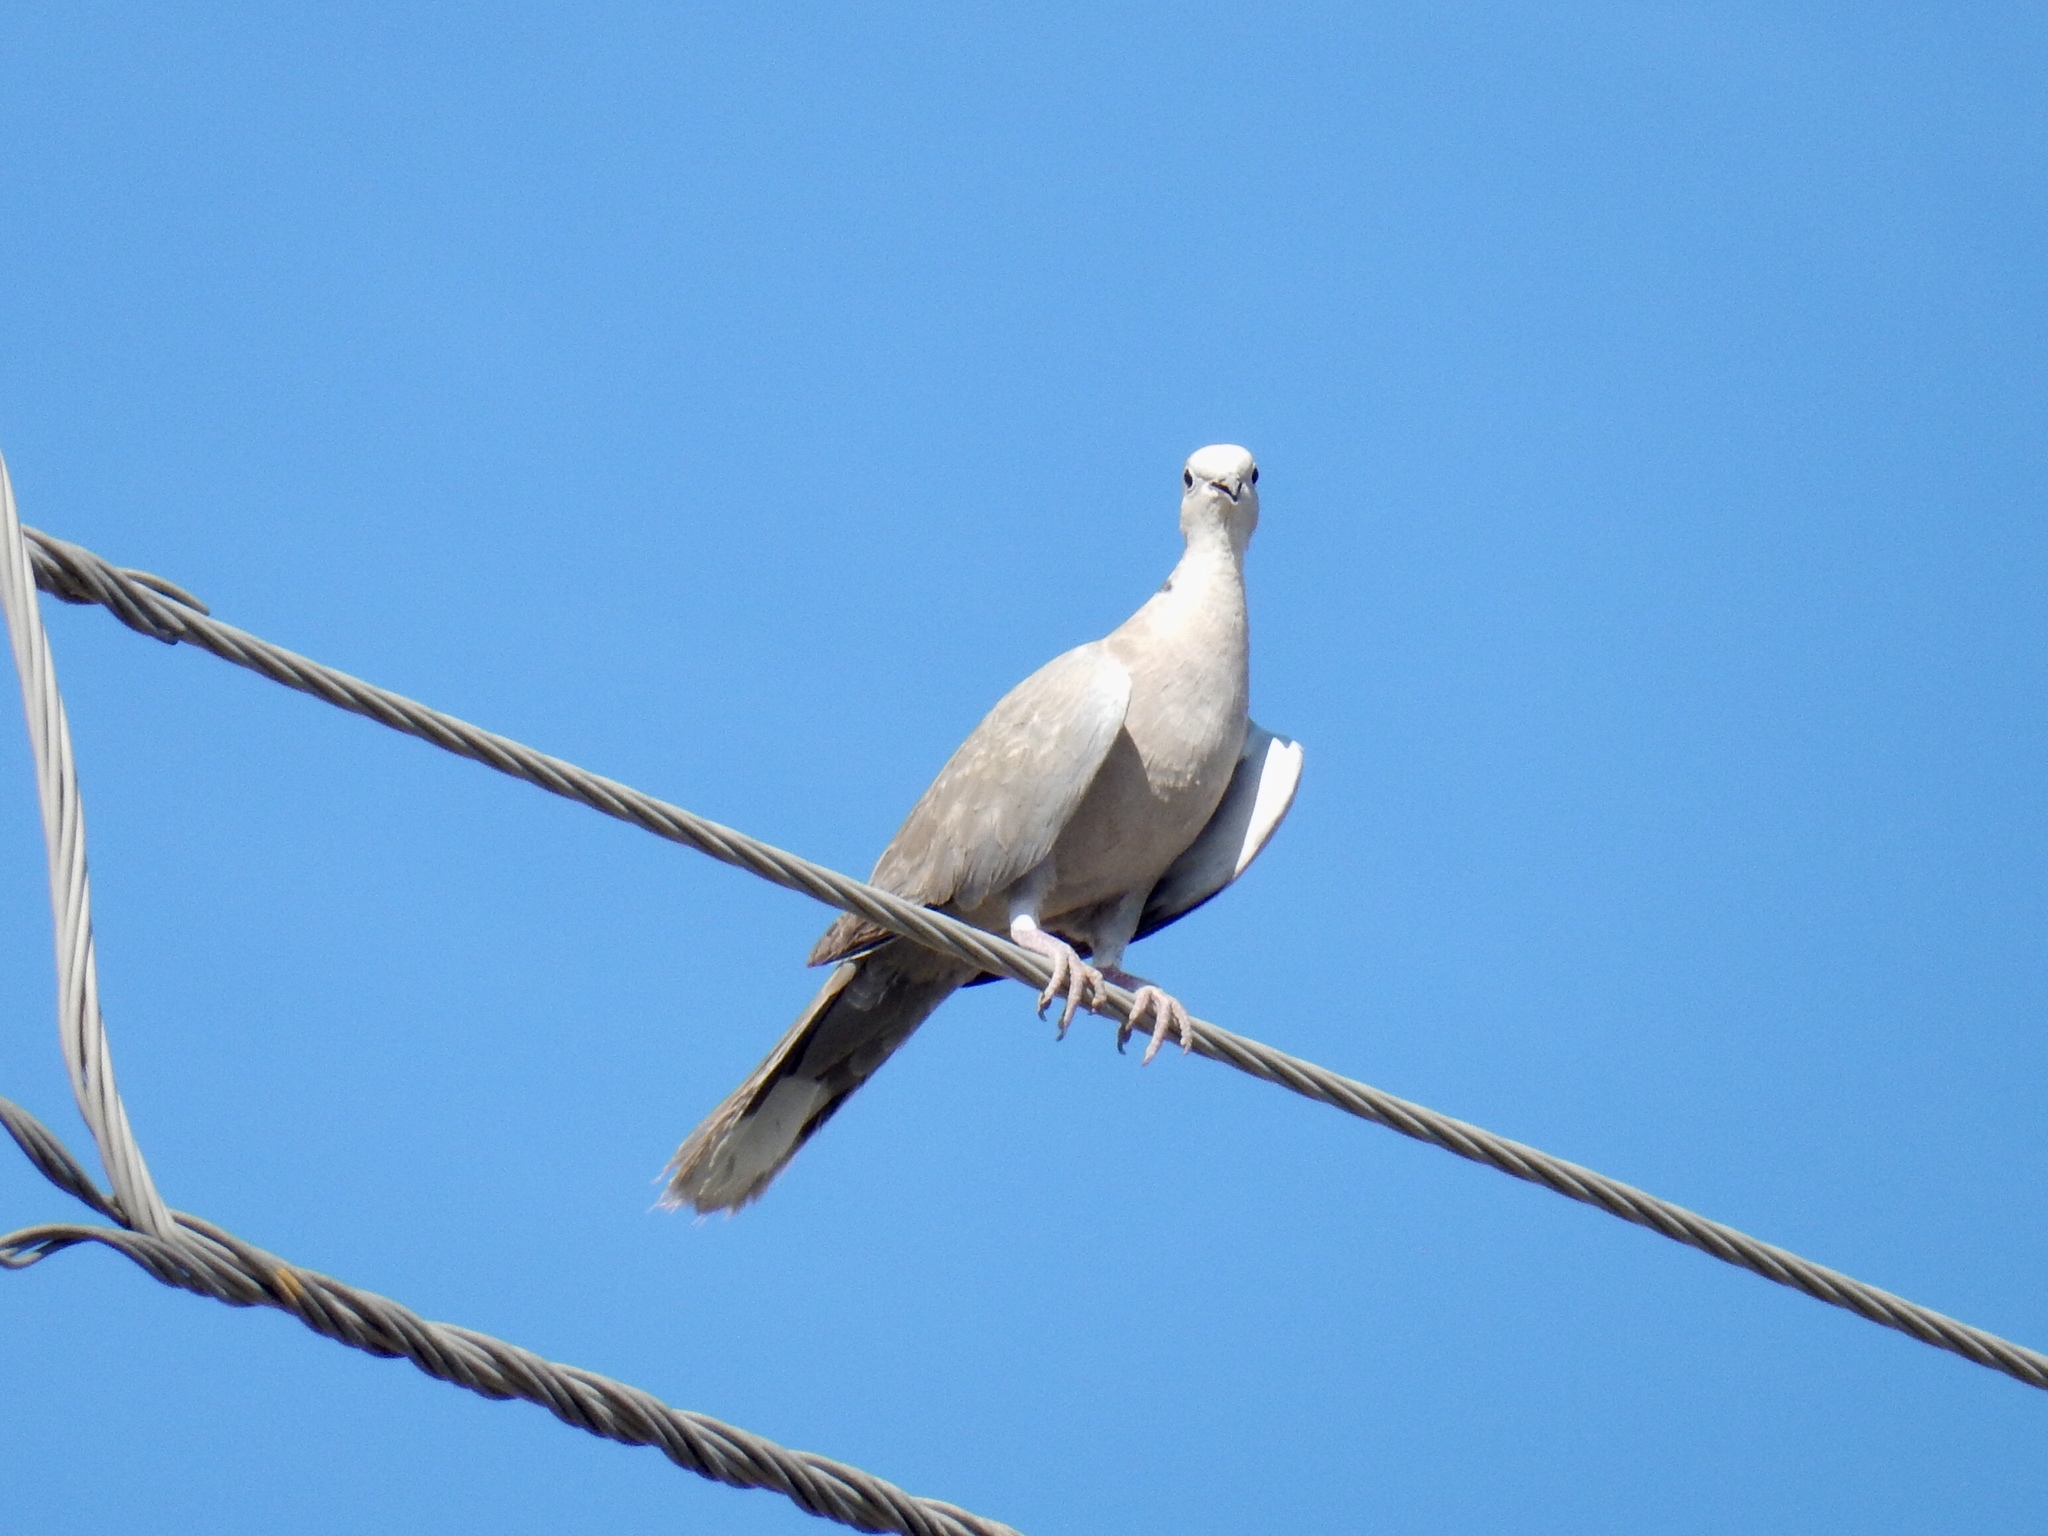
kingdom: Animalia
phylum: Chordata
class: Aves
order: Columbiformes
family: Columbidae
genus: Streptopelia
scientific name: Streptopelia decaocto
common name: Eurasian collared dove
